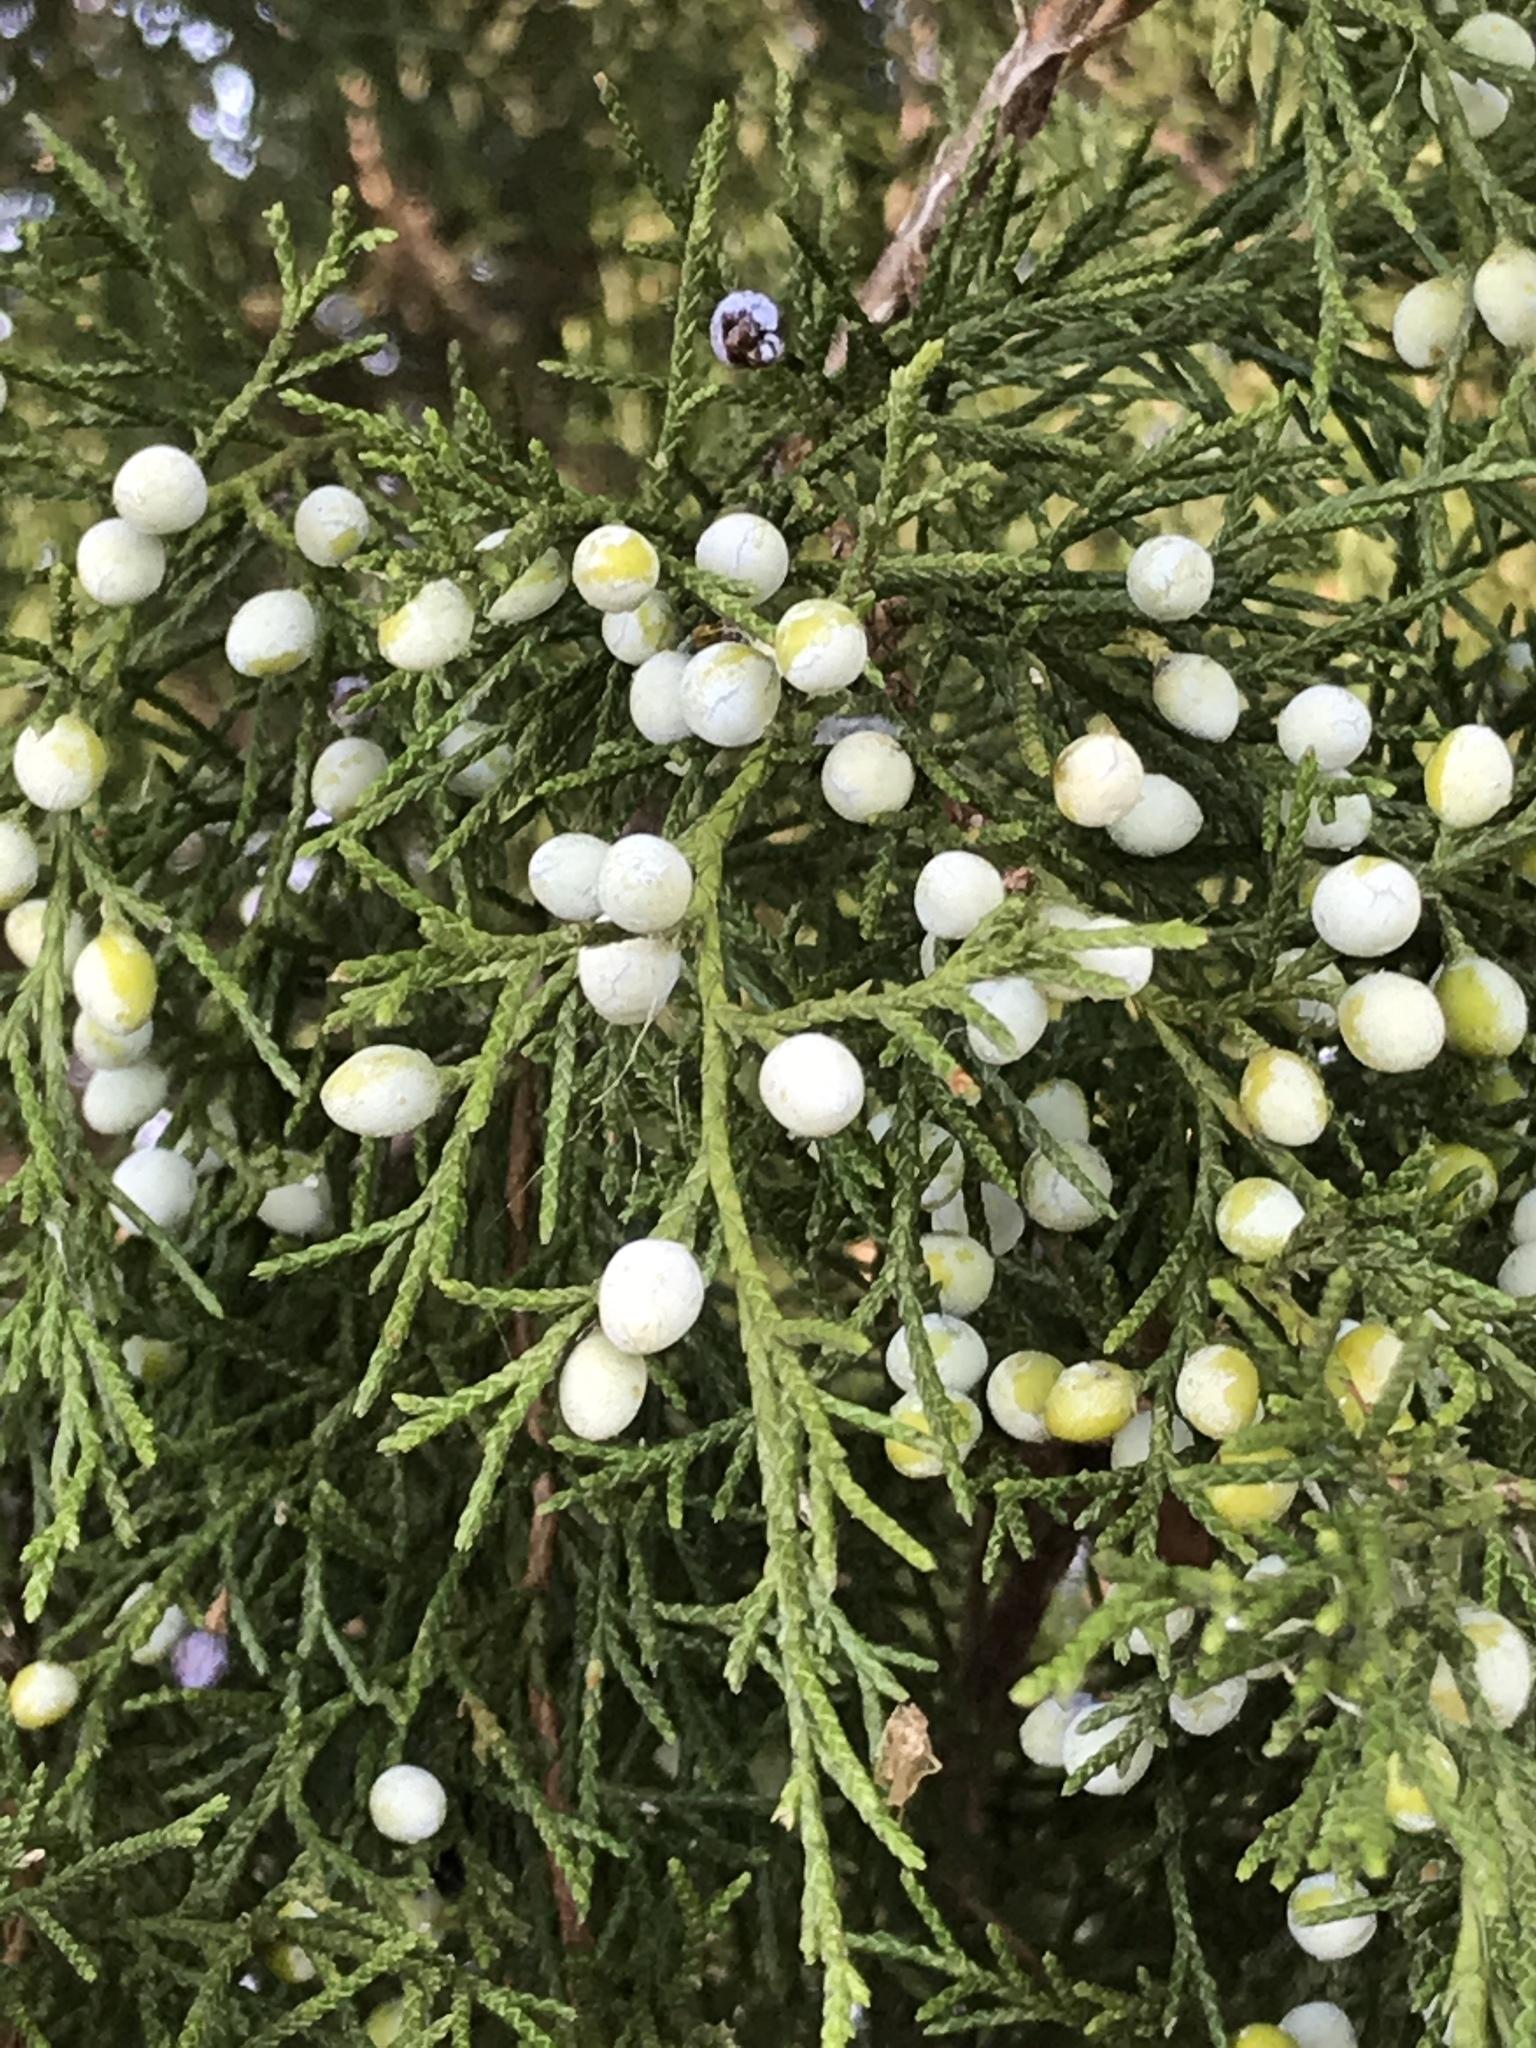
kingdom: Plantae
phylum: Tracheophyta
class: Pinopsida
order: Pinales
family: Cupressaceae
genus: Juniperus
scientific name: Juniperus virginiana
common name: Red juniper
